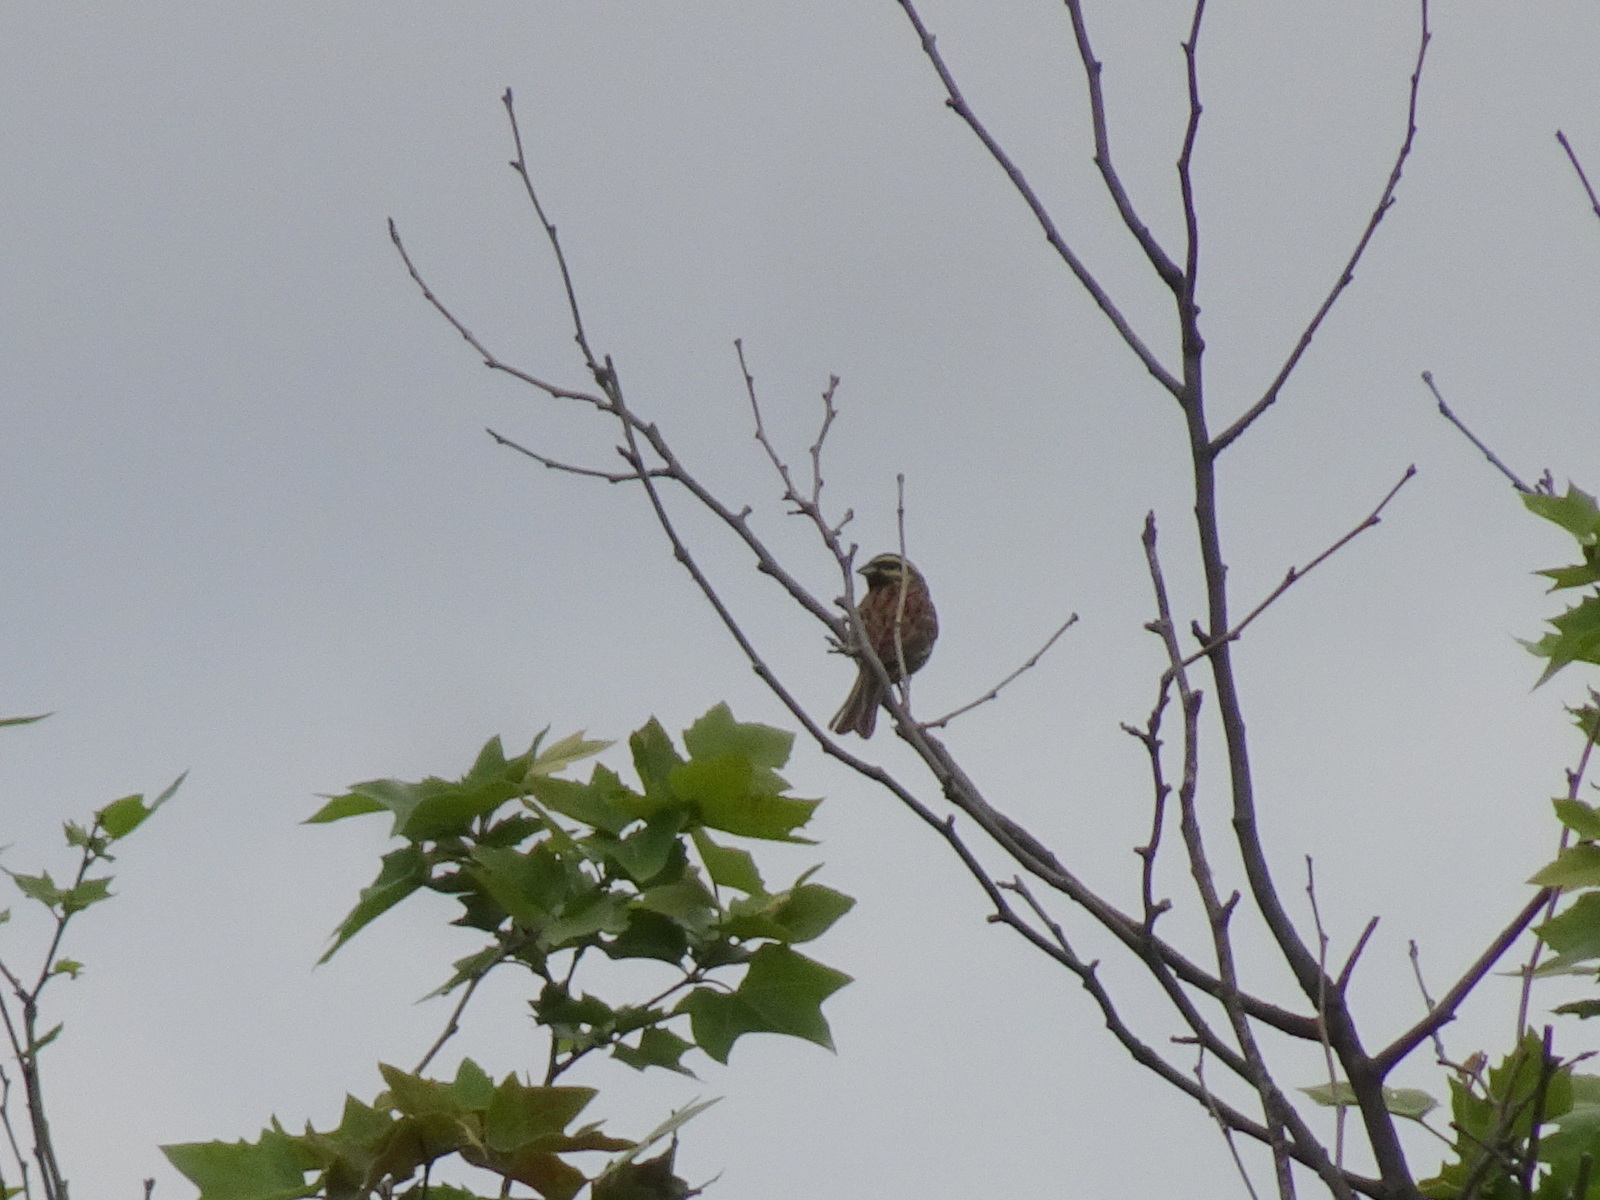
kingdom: Animalia
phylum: Chordata
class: Aves
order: Passeriformes
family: Emberizidae
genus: Emberiza
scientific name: Emberiza cirlus
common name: Cirl bunting
